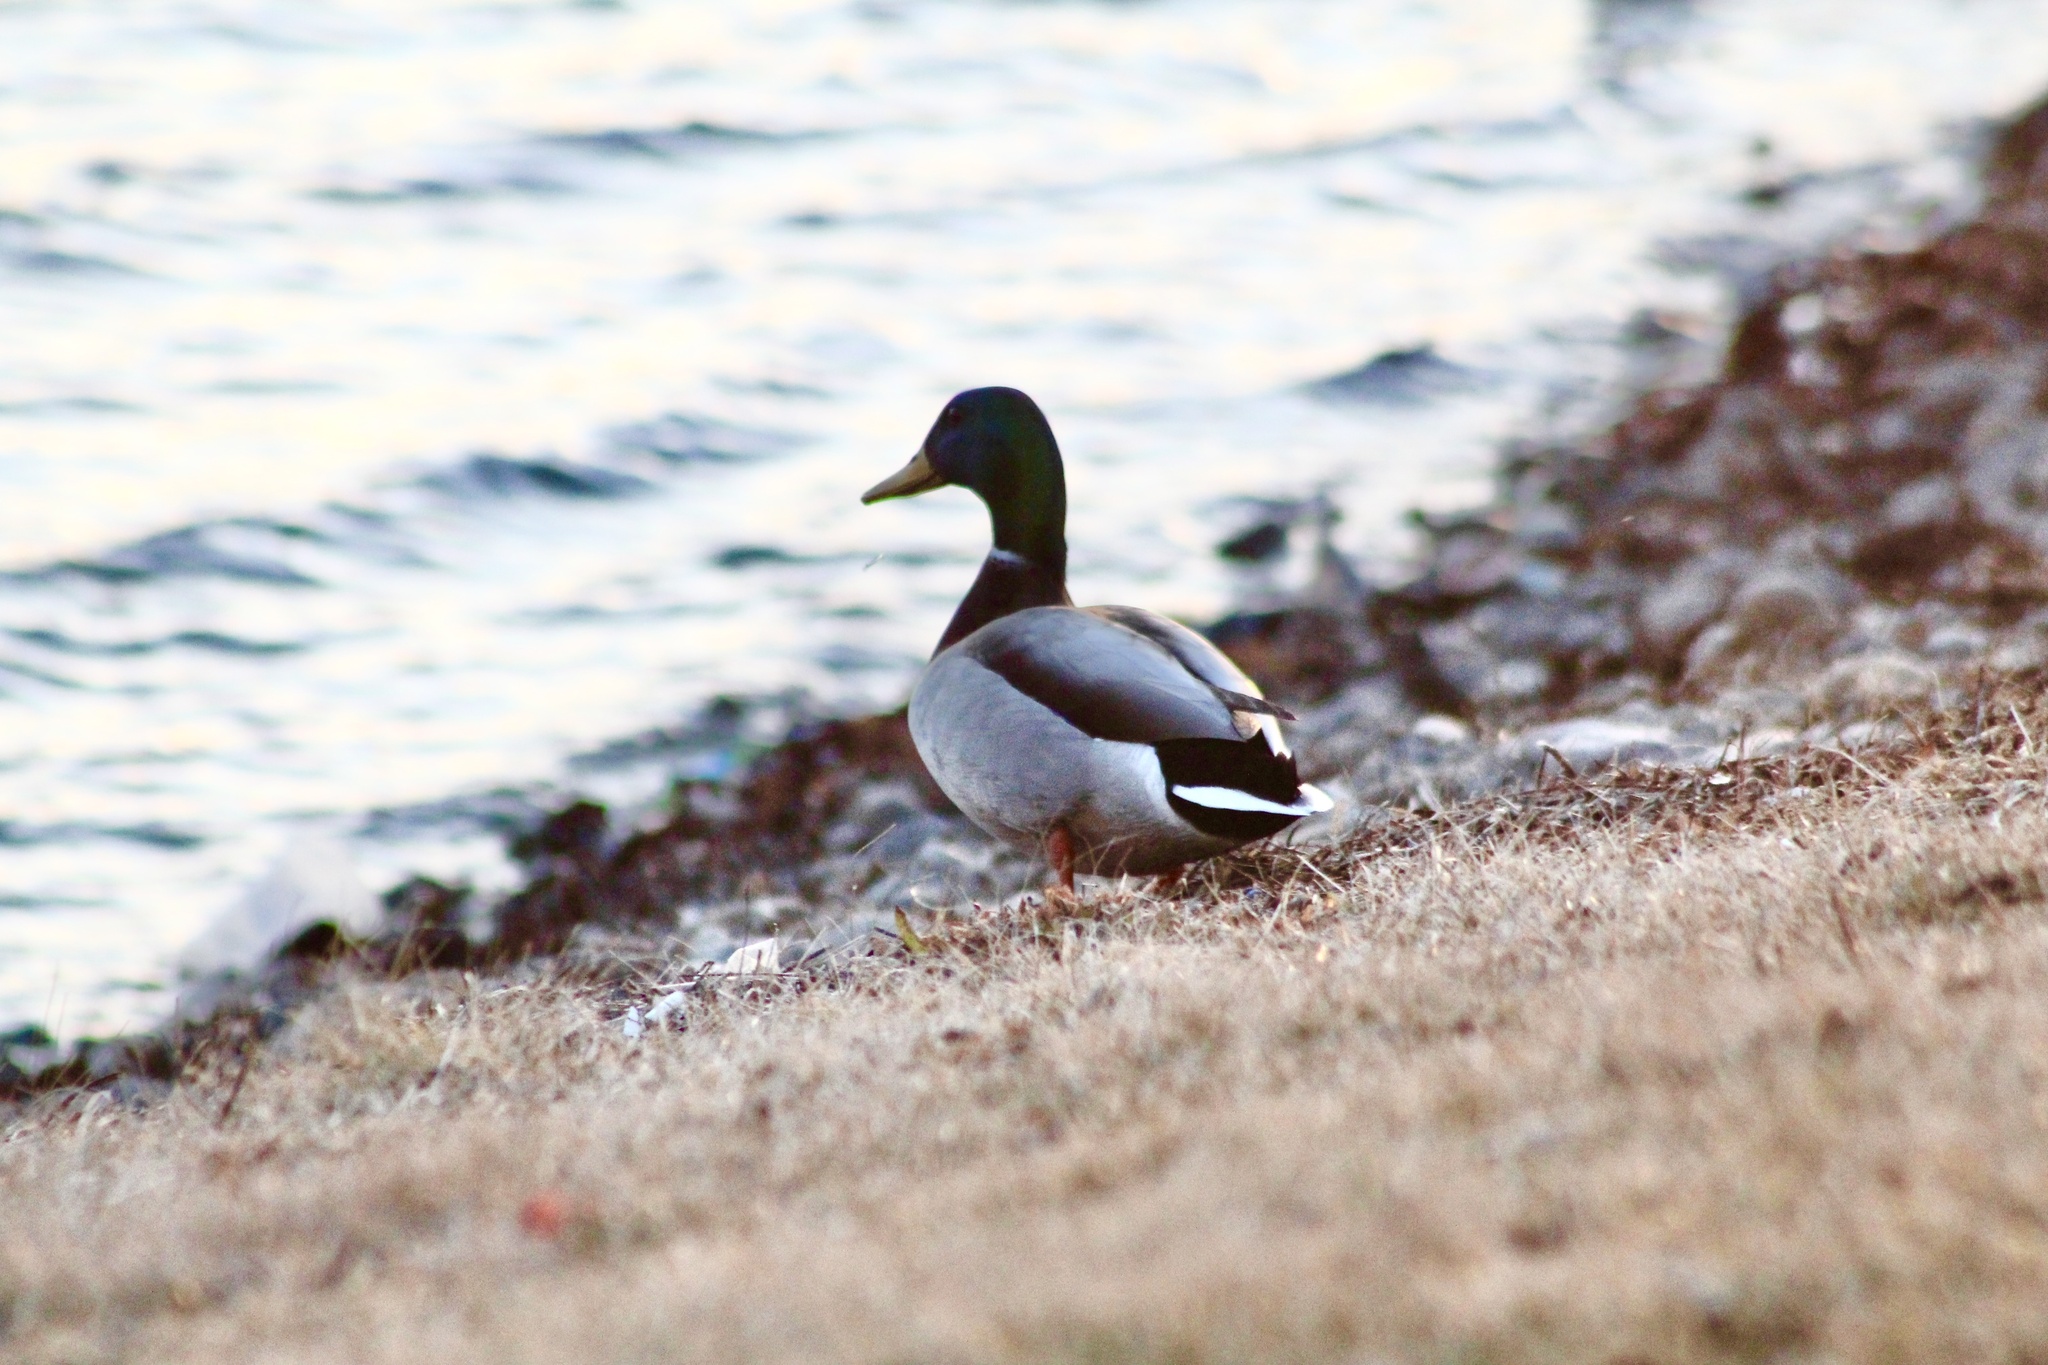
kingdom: Animalia
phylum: Chordata
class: Aves
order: Anseriformes
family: Anatidae
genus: Anas
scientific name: Anas platyrhynchos
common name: Mallard
